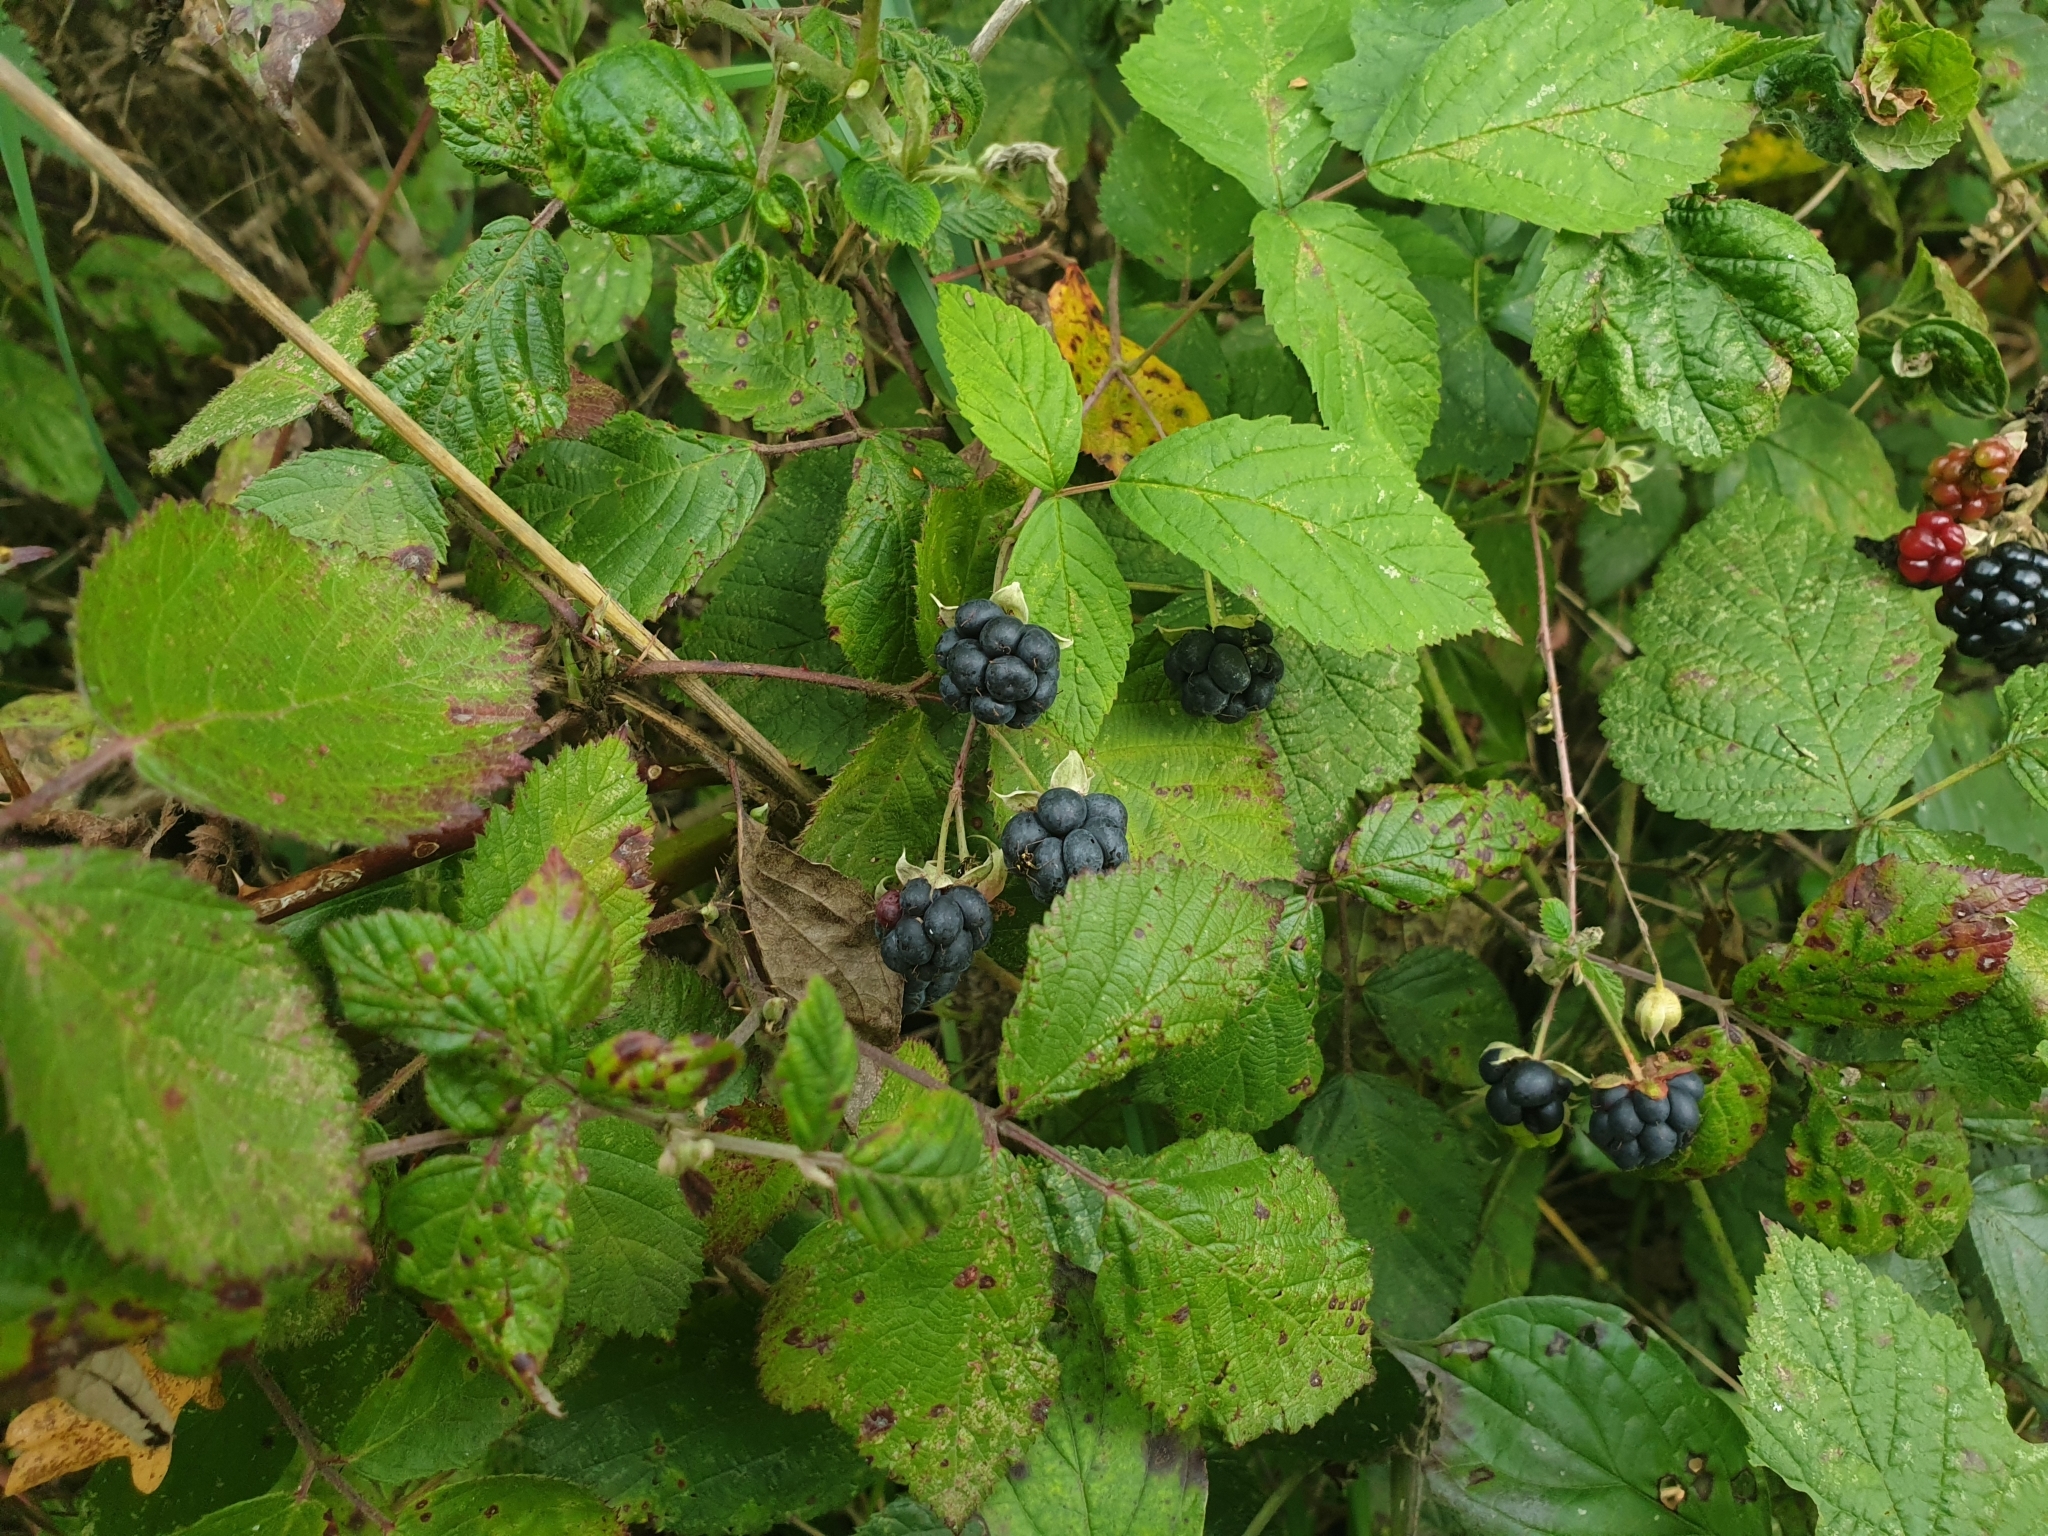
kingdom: Plantae
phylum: Tracheophyta
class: Magnoliopsida
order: Rosales
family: Rosaceae
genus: Rubus
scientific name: Rubus caesius
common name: Dewberry
